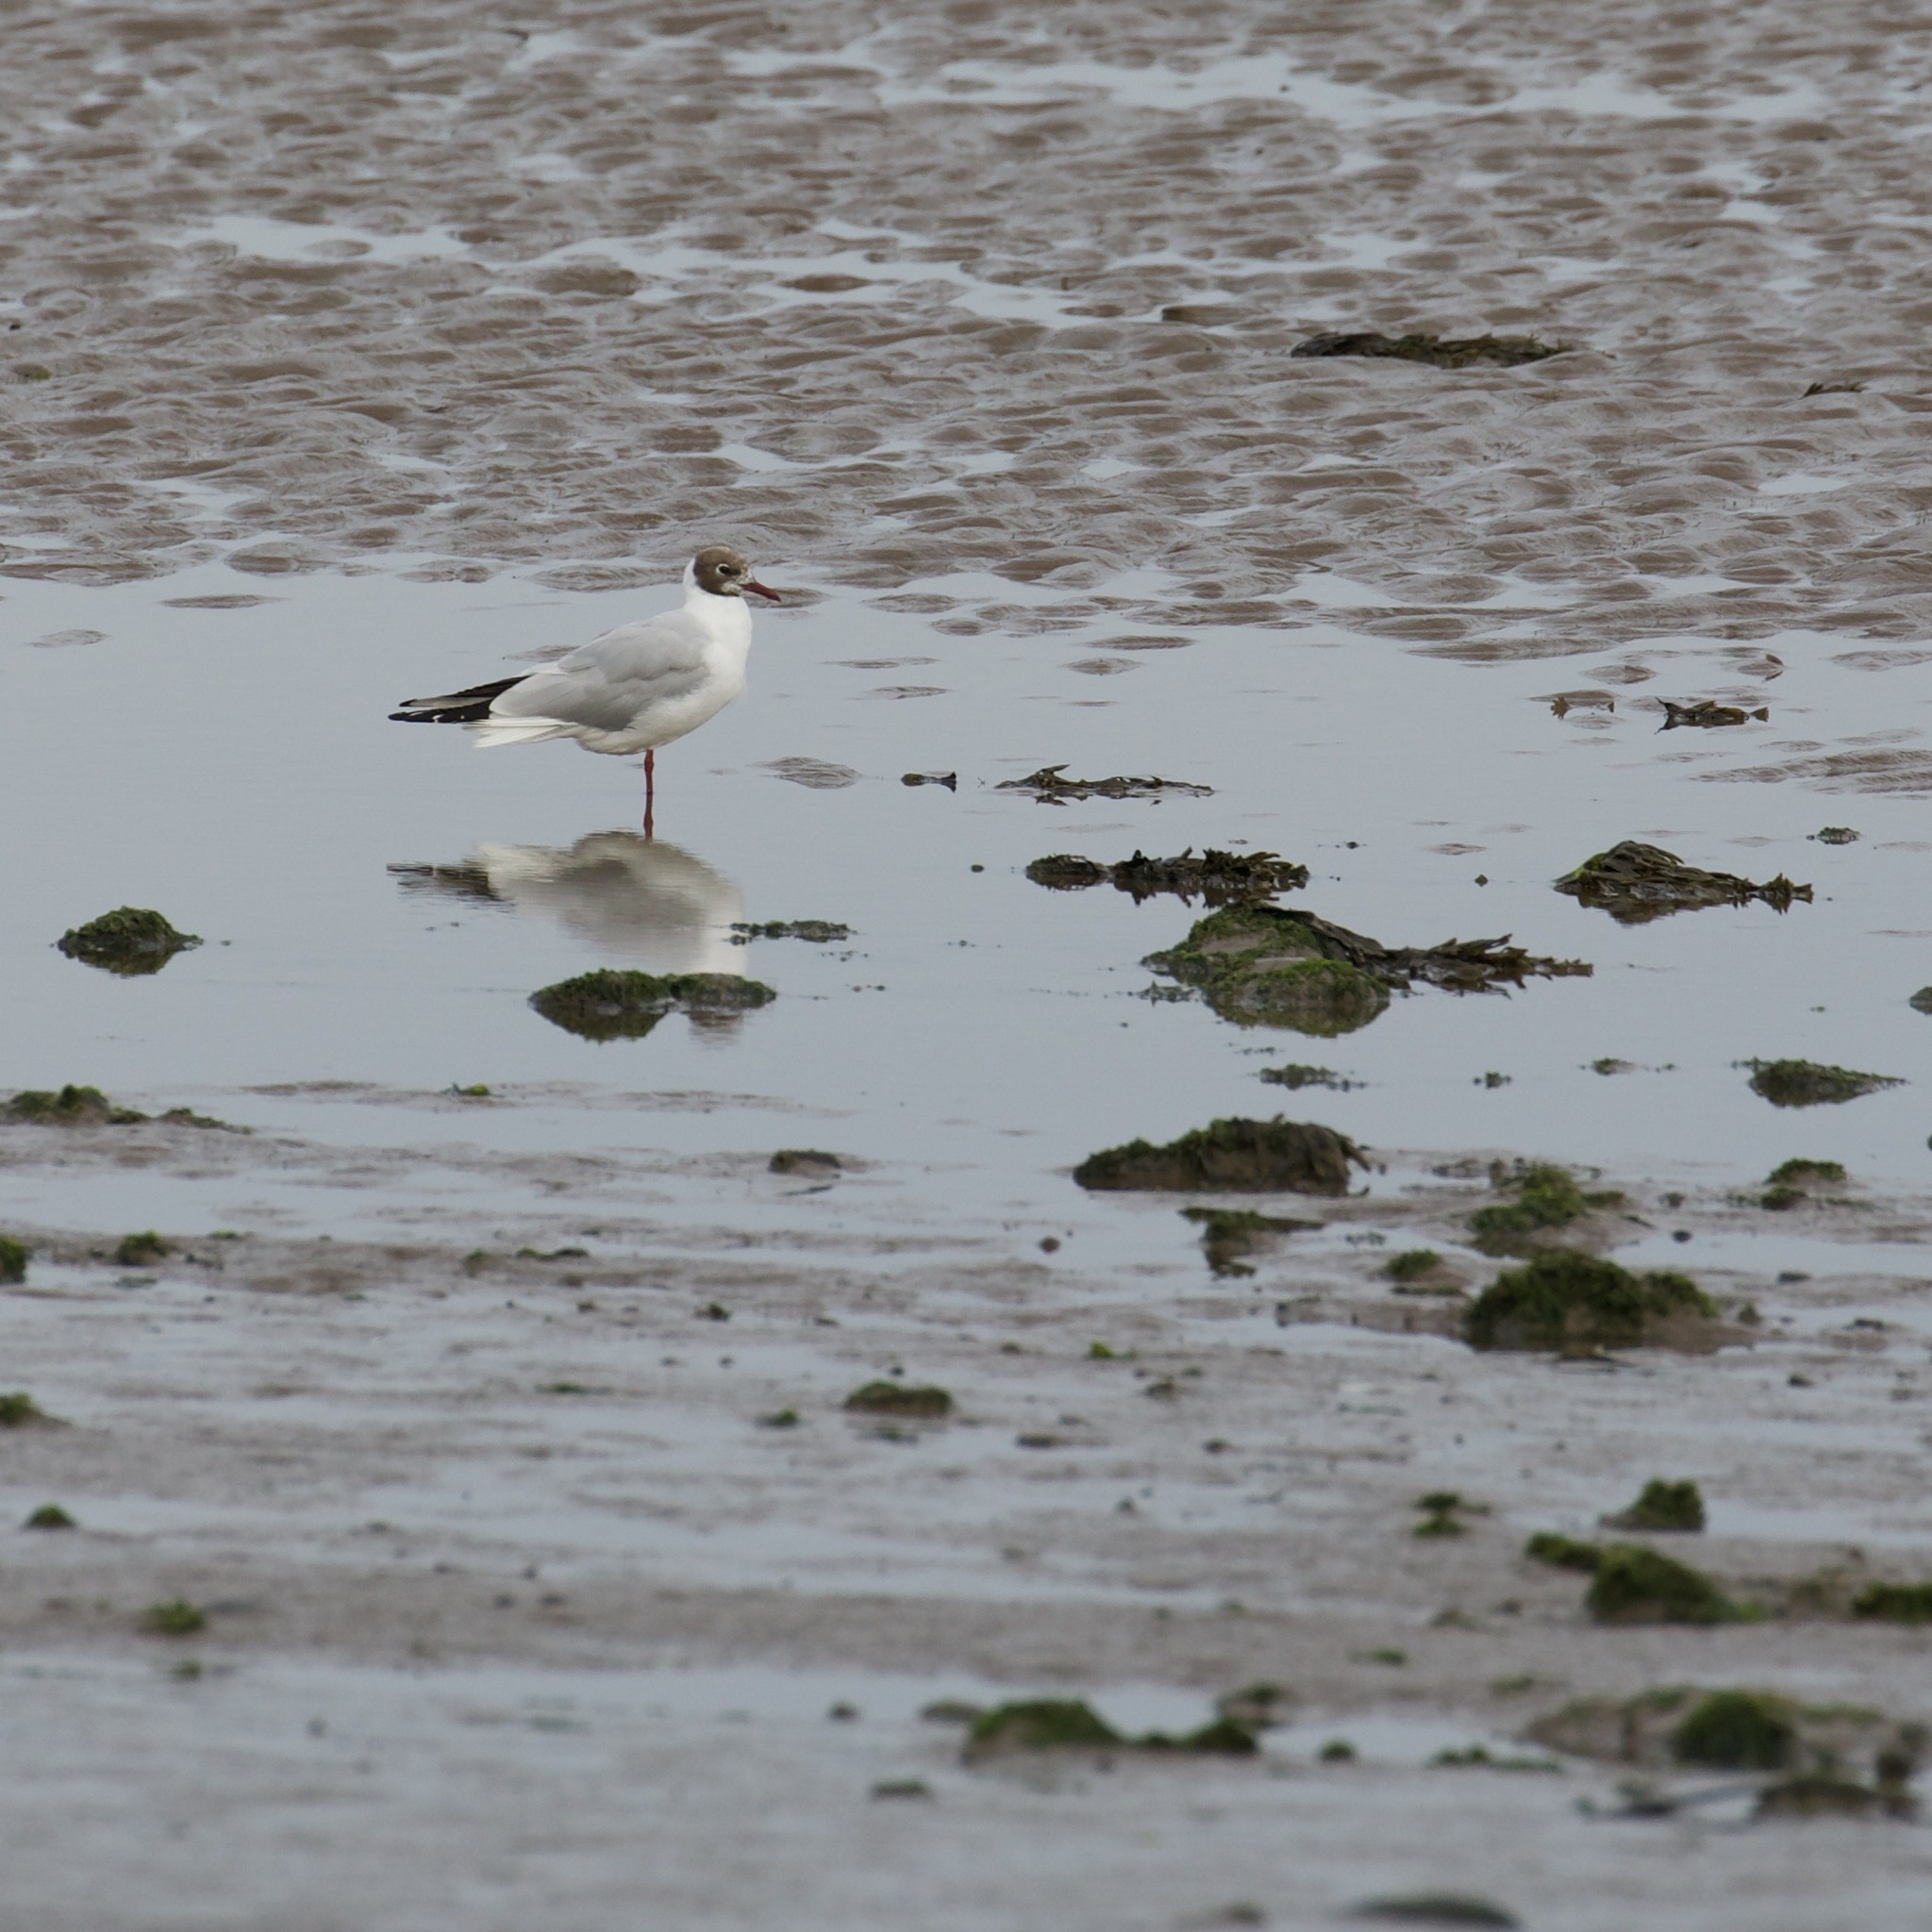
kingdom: Animalia
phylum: Chordata
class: Aves
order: Charadriiformes
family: Laridae
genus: Chroicocephalus
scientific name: Chroicocephalus ridibundus
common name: Black-headed gull
